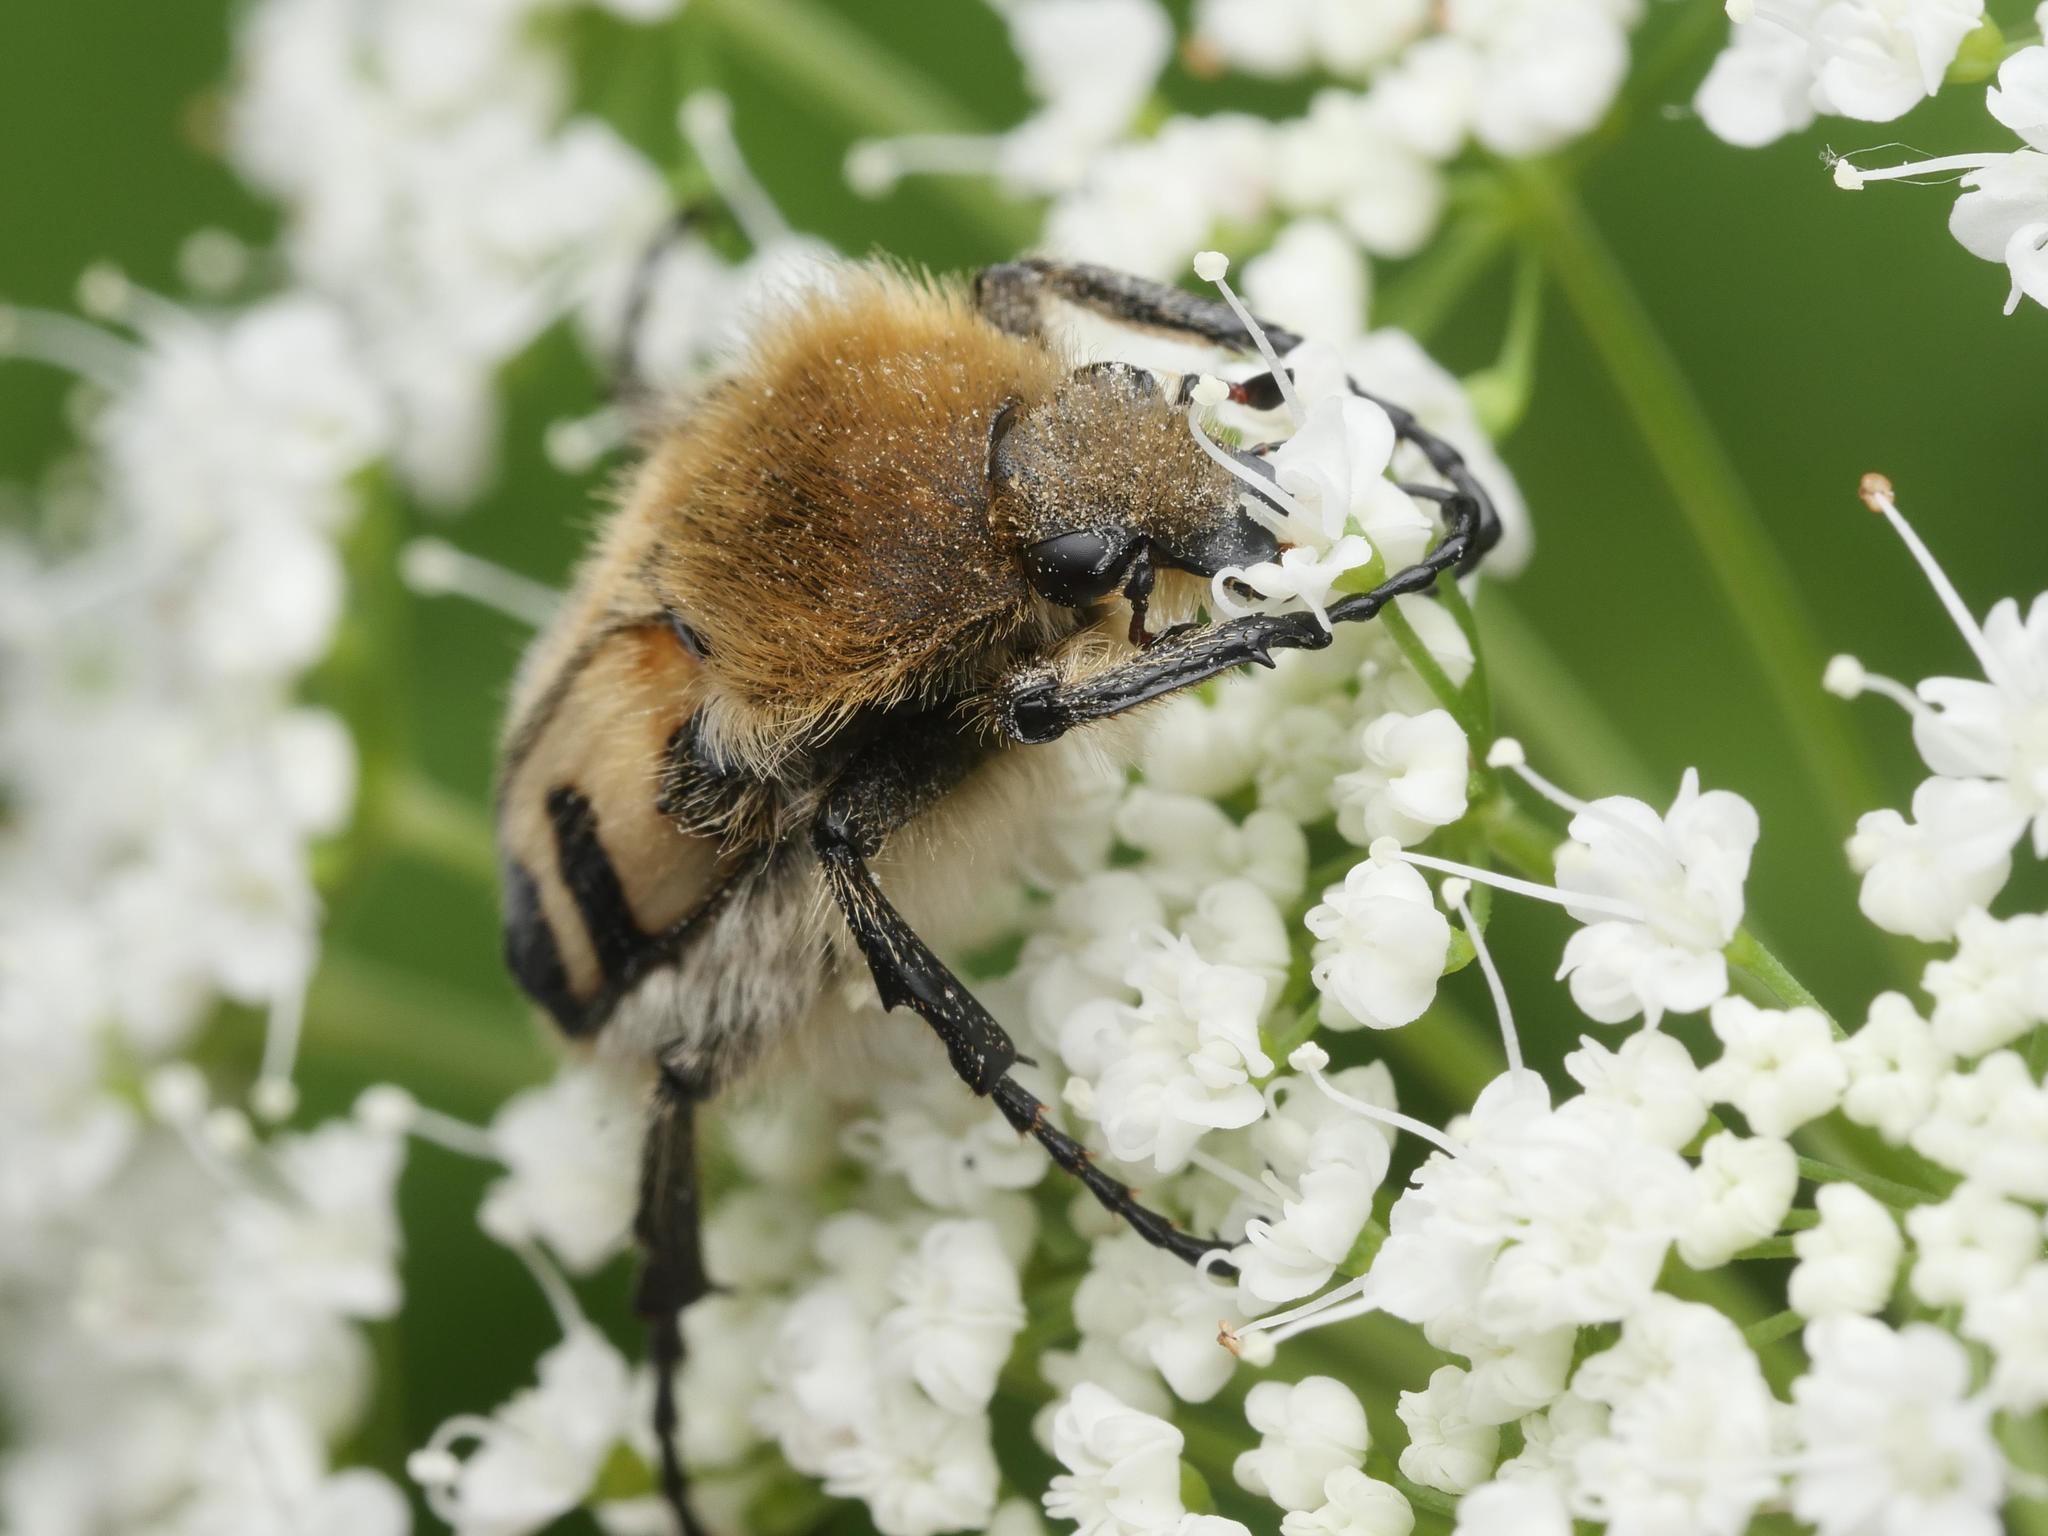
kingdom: Animalia
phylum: Arthropoda
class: Insecta
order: Coleoptera
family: Scarabaeidae
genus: Trichius
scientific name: Trichius fasciatus
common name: Bee beetle
